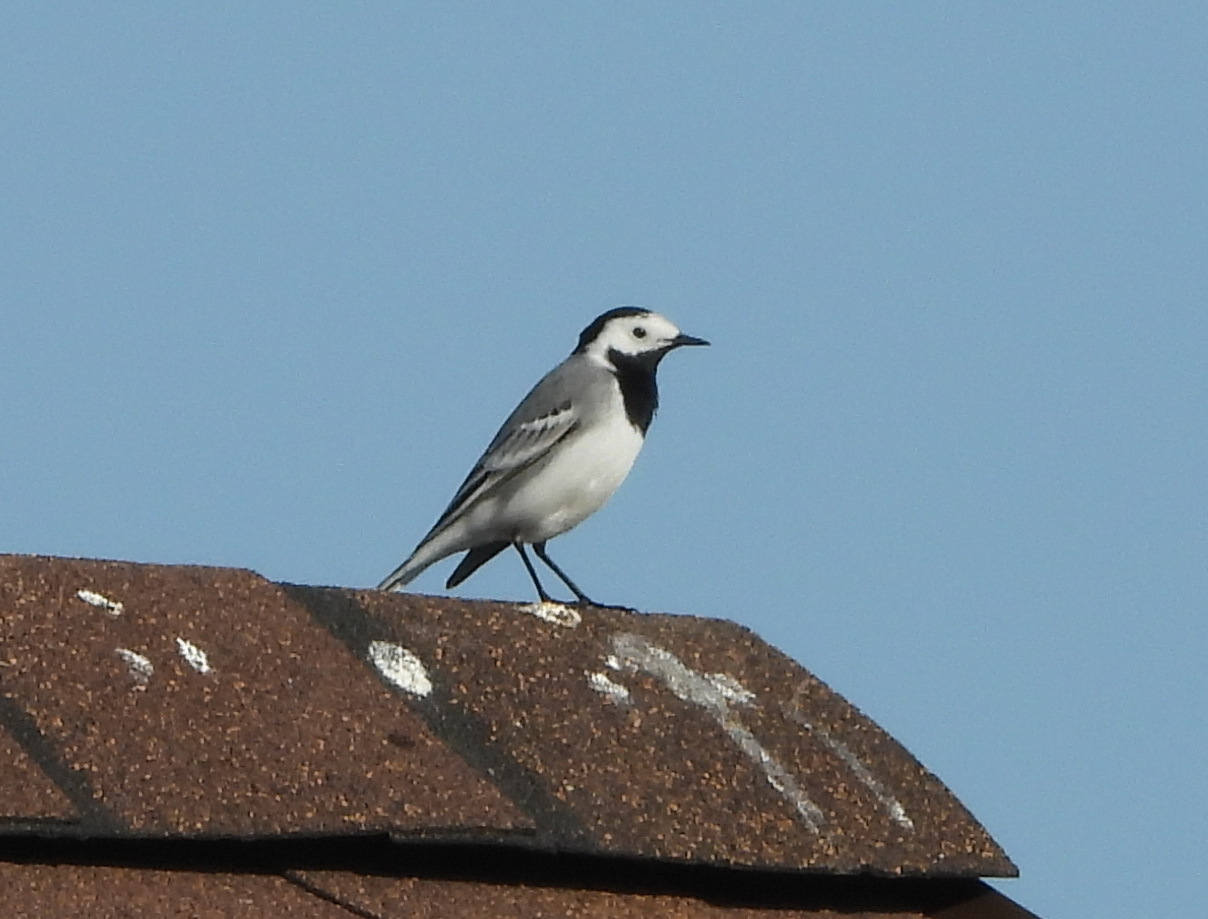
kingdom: Animalia
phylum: Chordata
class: Aves
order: Passeriformes
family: Motacillidae
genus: Motacilla
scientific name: Motacilla alba
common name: White wagtail
